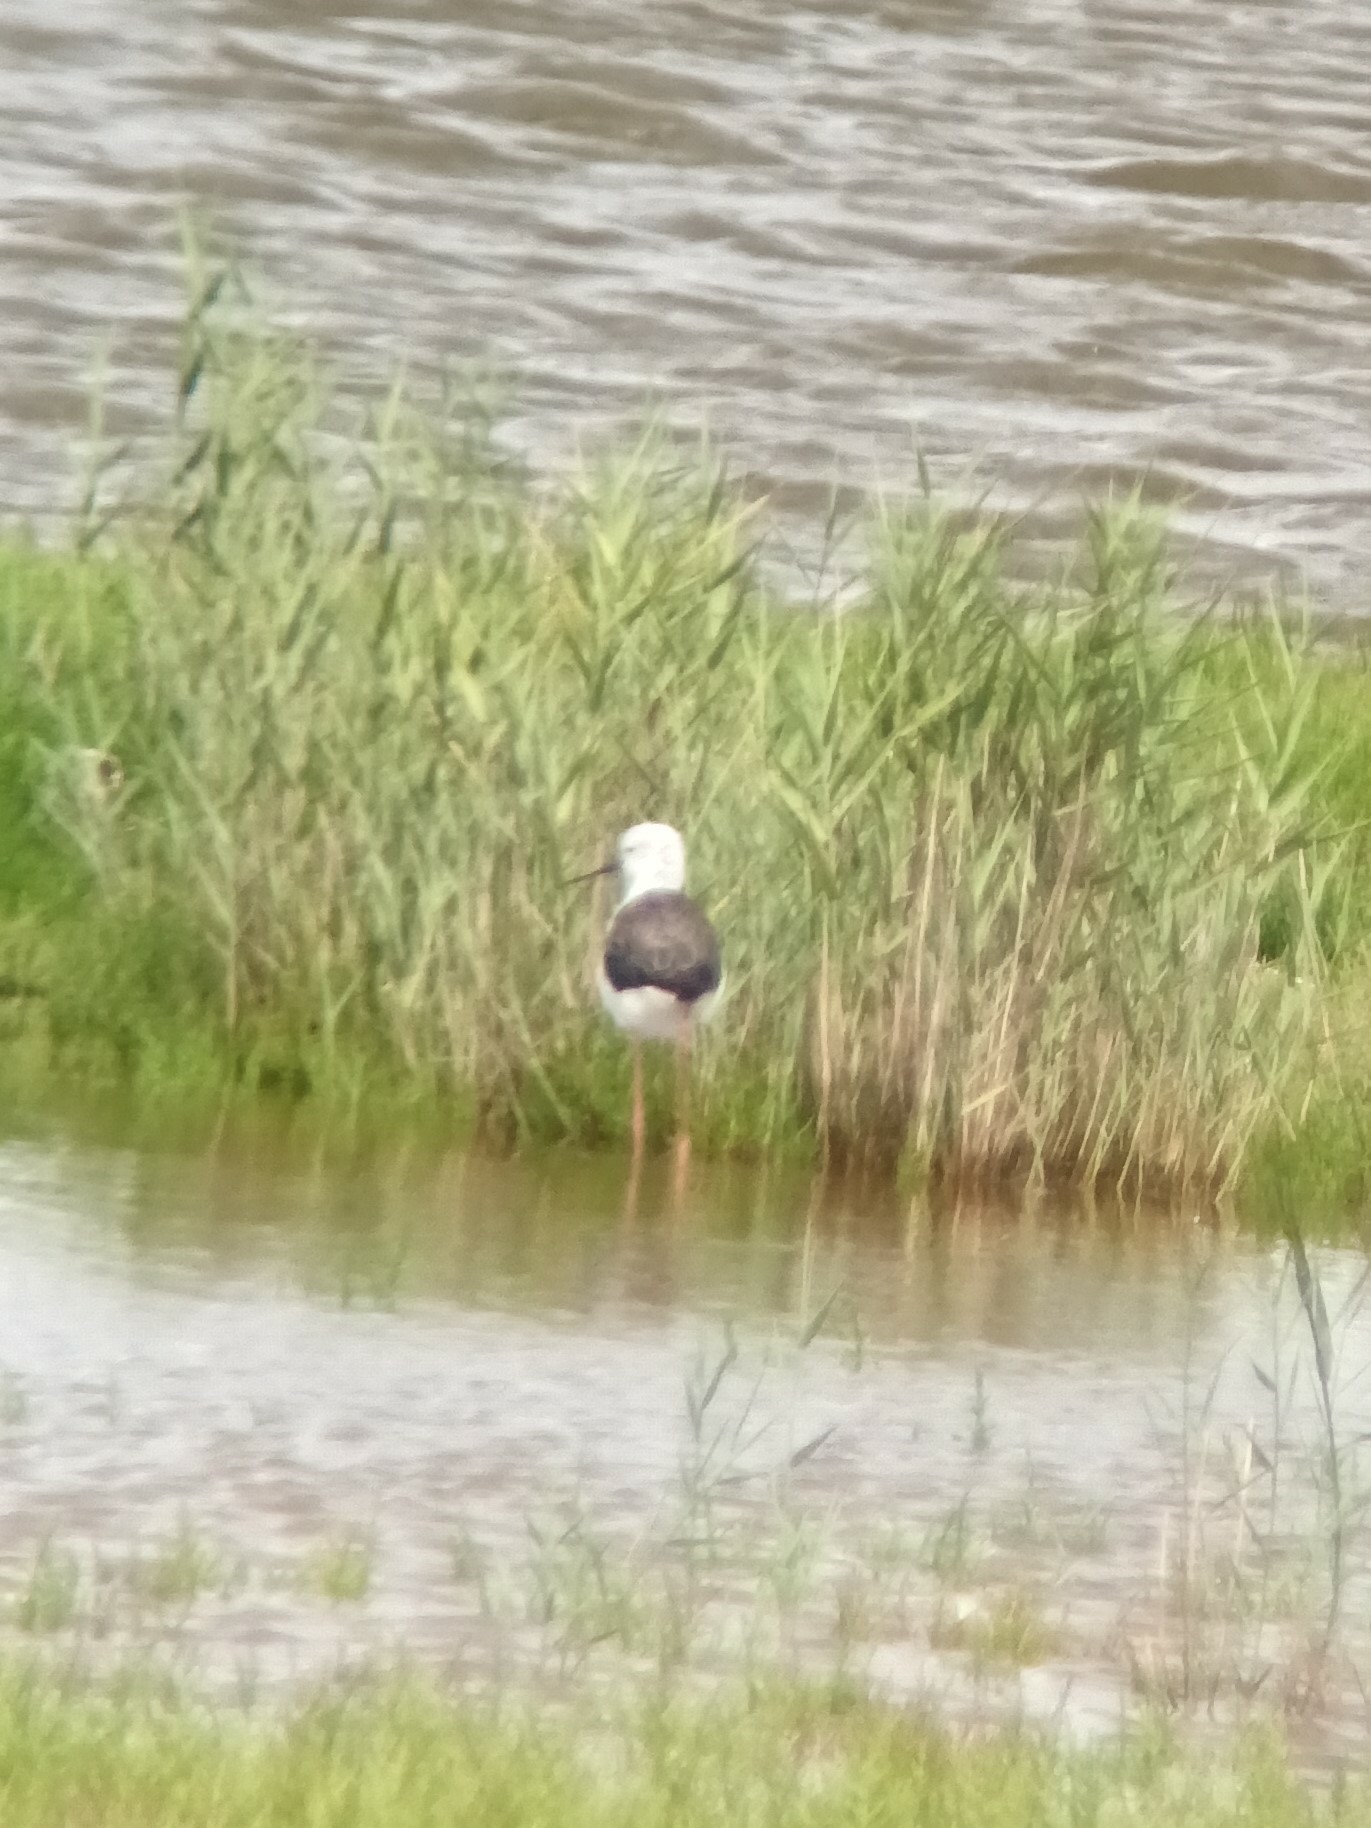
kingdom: Animalia
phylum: Chordata
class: Aves
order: Charadriiformes
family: Recurvirostridae
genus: Himantopus
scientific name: Himantopus himantopus
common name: Black-winged stilt
